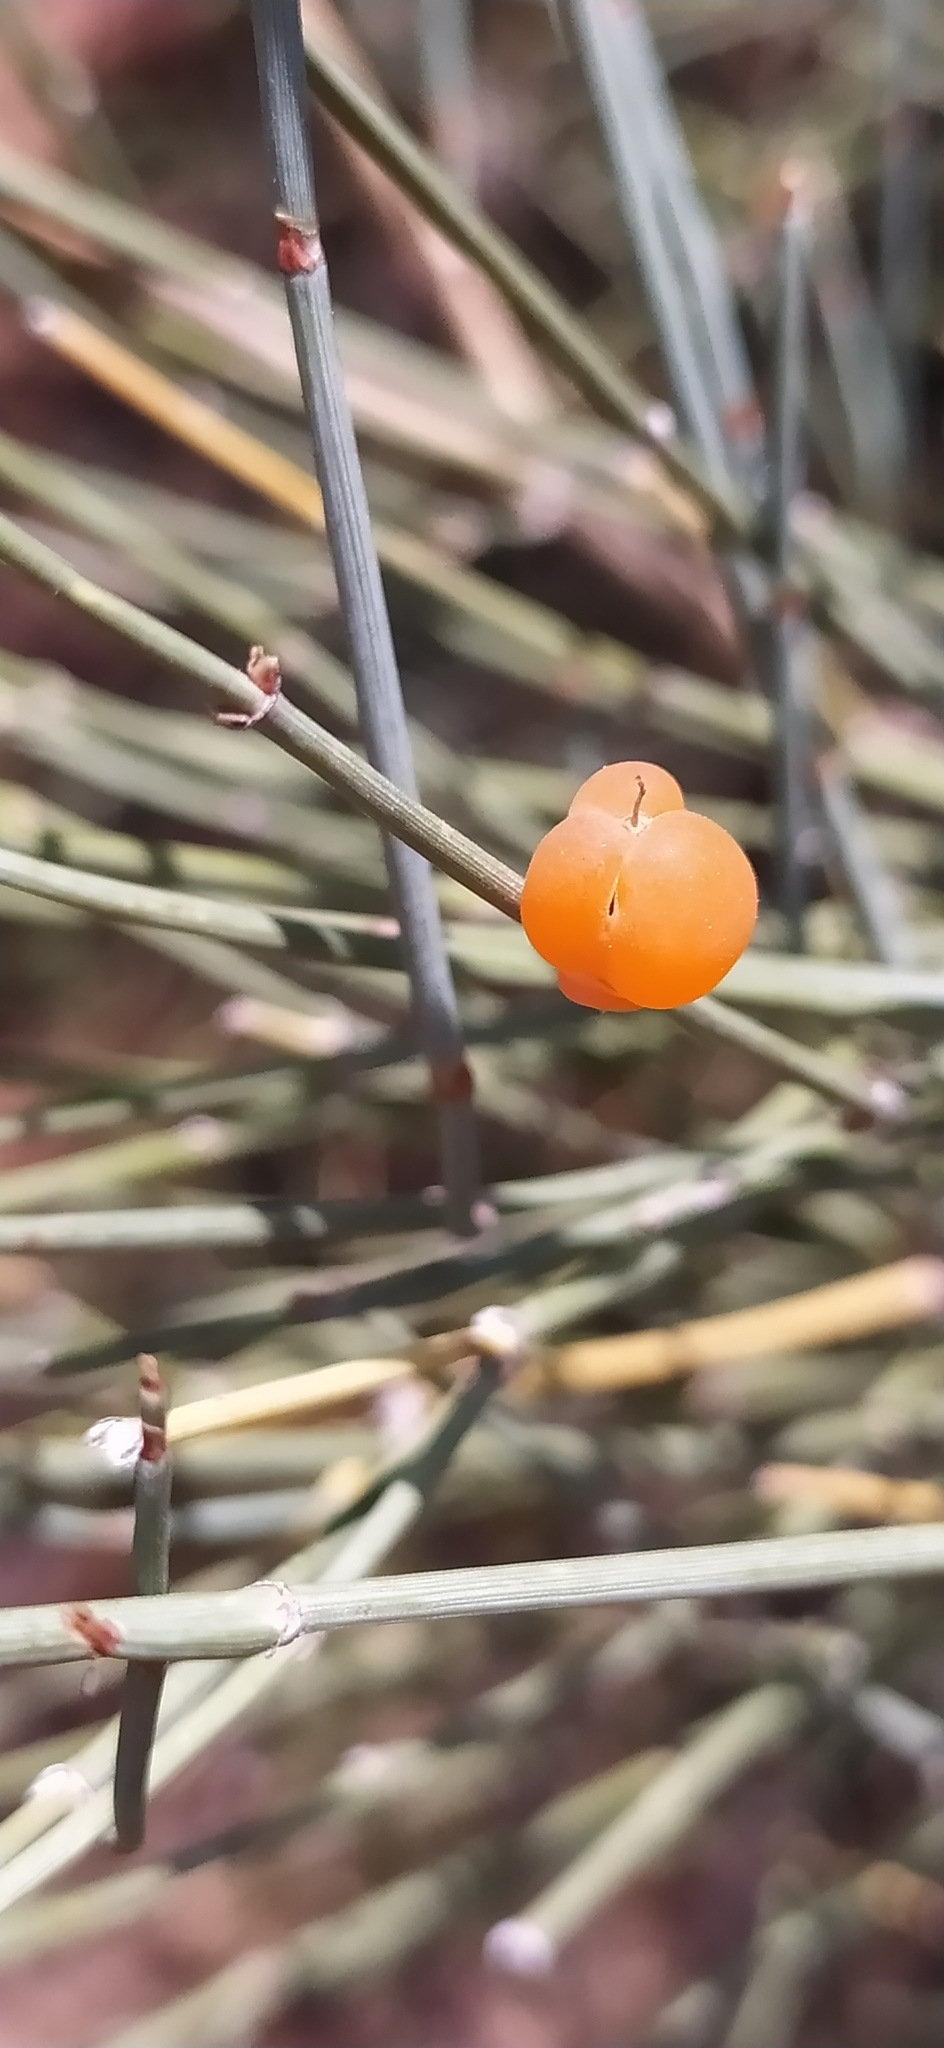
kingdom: Plantae
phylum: Tracheophyta
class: Gnetopsida
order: Ephedrales
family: Ephedraceae
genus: Ephedra
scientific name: Ephedra equisetina
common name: Mongolian ephedra
